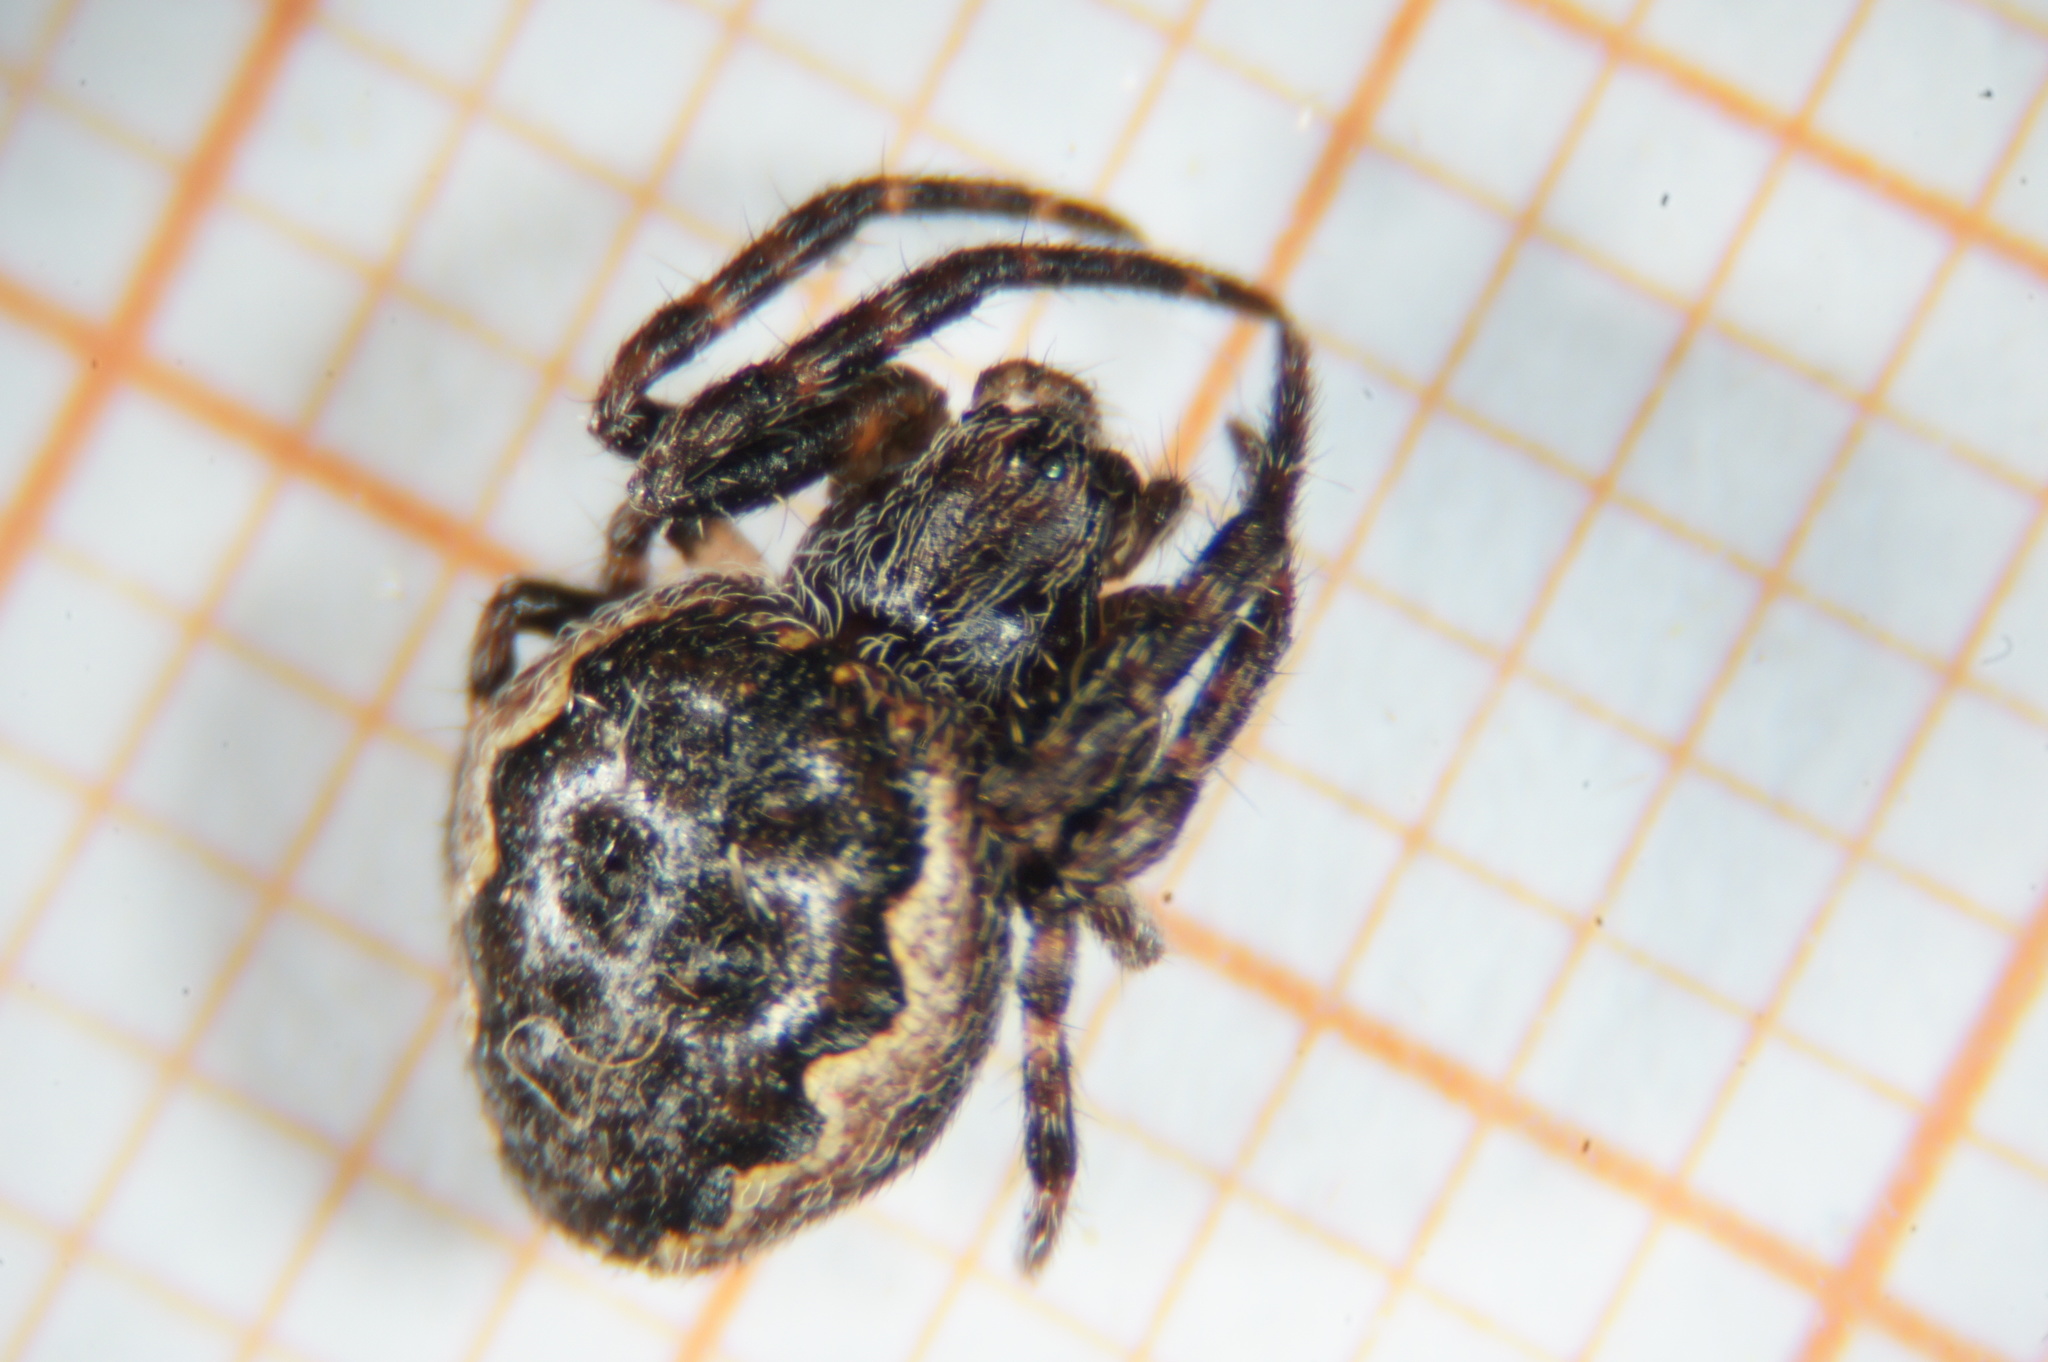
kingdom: Animalia
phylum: Arthropoda
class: Arachnida
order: Araneae
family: Araneidae
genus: Nuctenea
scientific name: Nuctenea umbratica
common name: Toad spider
